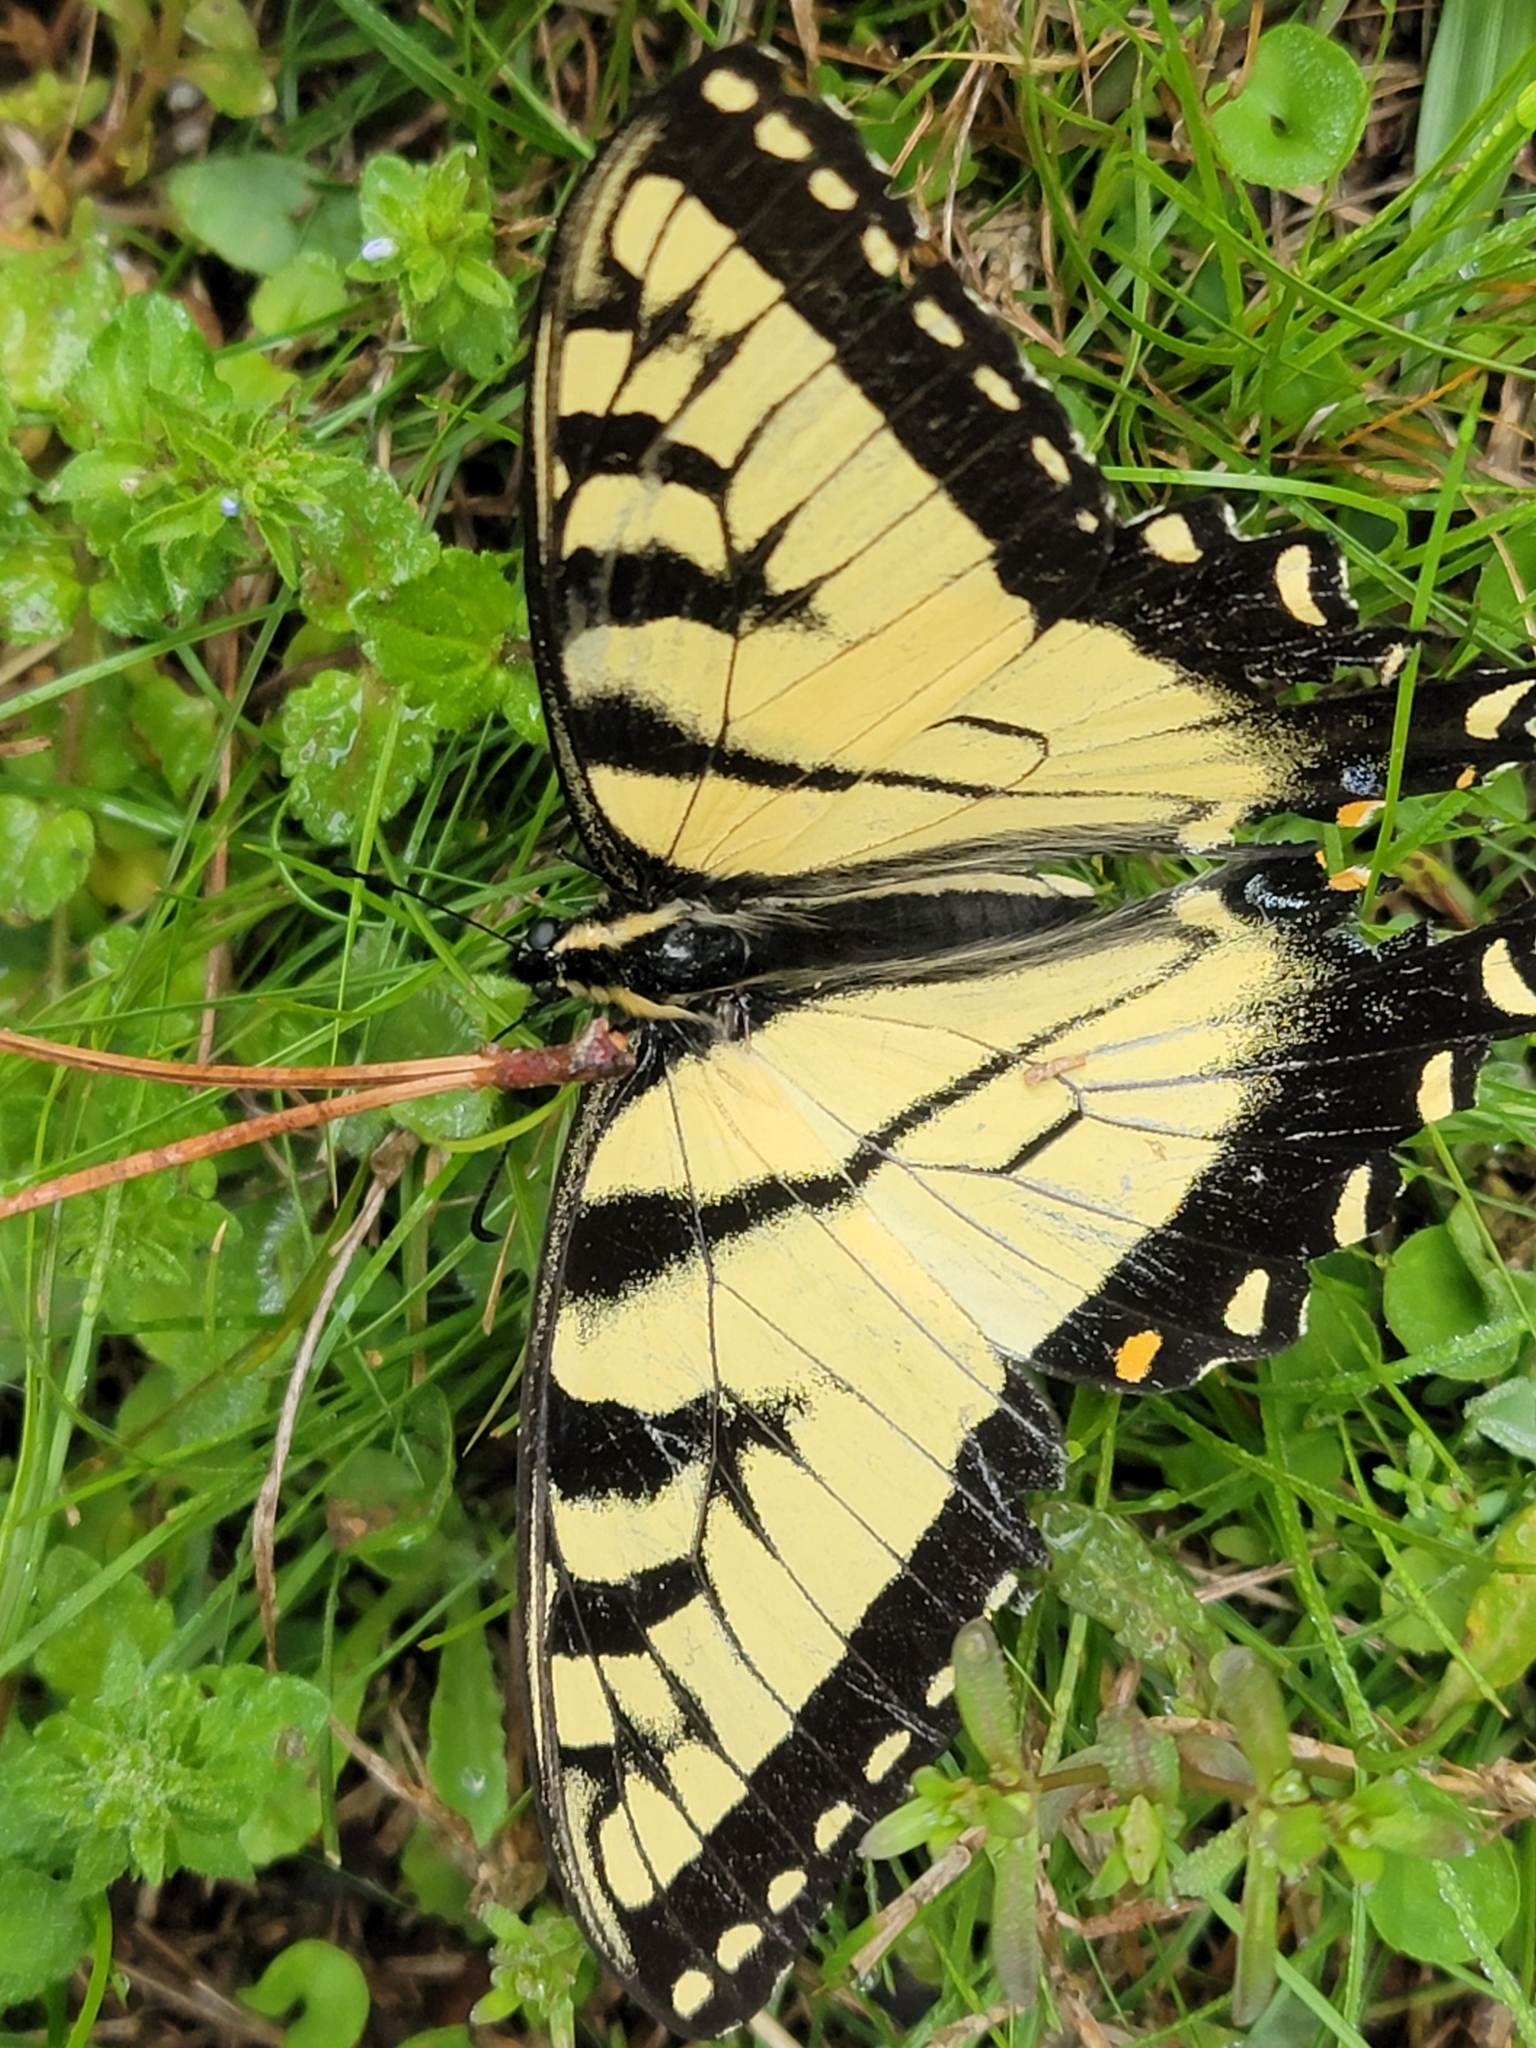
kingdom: Animalia
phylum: Arthropoda
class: Insecta
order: Lepidoptera
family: Papilionidae
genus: Papilio
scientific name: Papilio glaucus
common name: Tiger swallowtail
